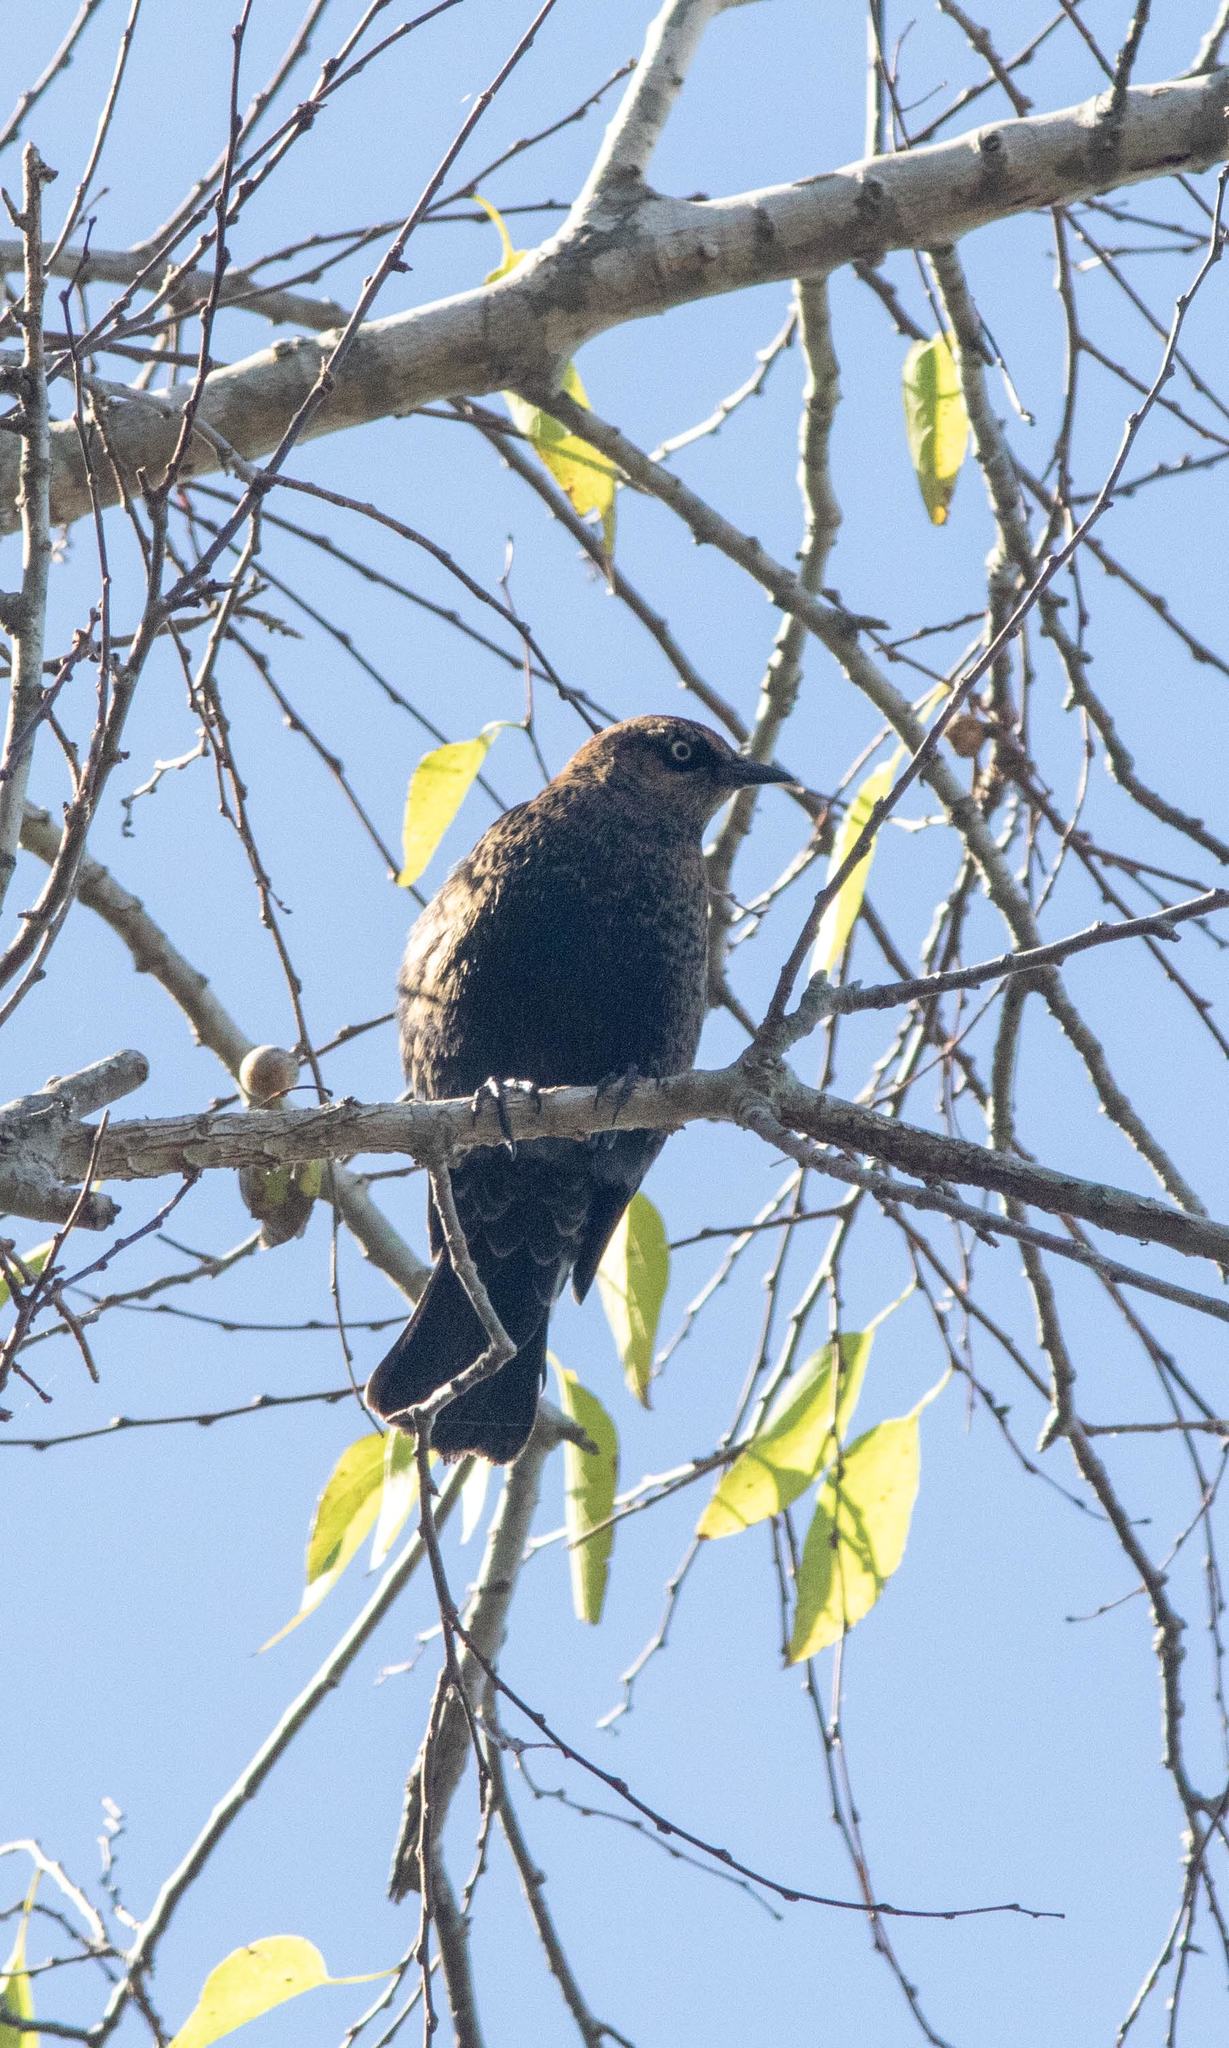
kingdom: Animalia
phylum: Chordata
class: Aves
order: Passeriformes
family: Icteridae
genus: Euphagus
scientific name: Euphagus carolinus
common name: Rusty blackbird
